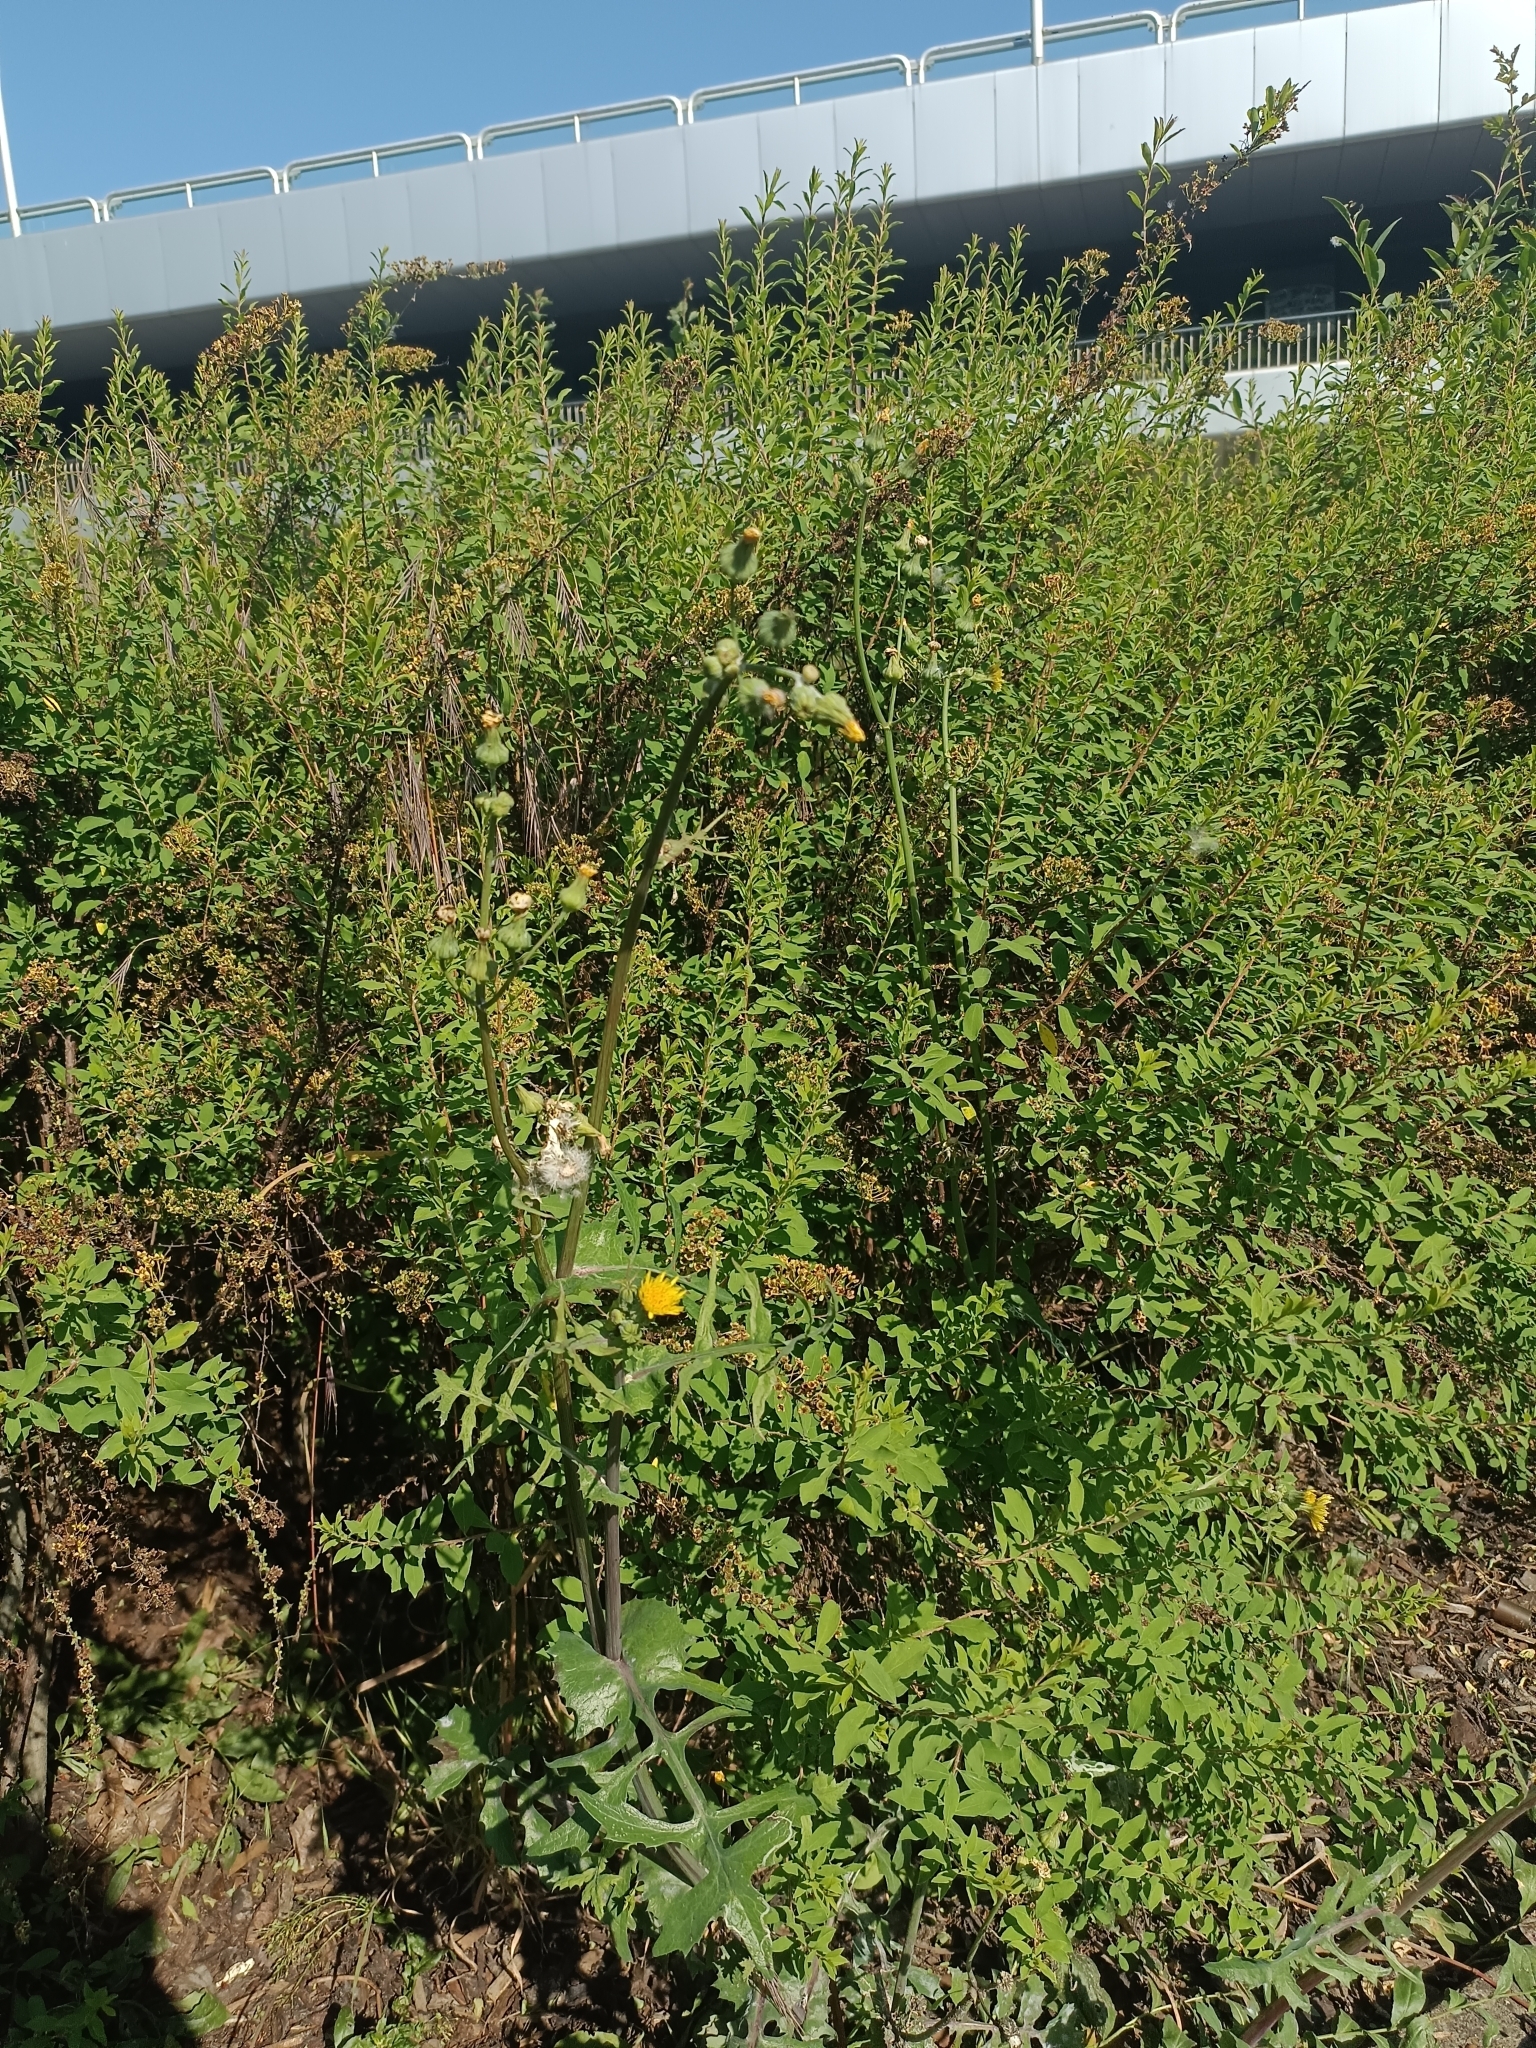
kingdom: Plantae
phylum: Tracheophyta
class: Magnoliopsida
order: Asterales
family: Asteraceae
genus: Sonchus
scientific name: Sonchus oleraceus
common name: Common sowthistle
